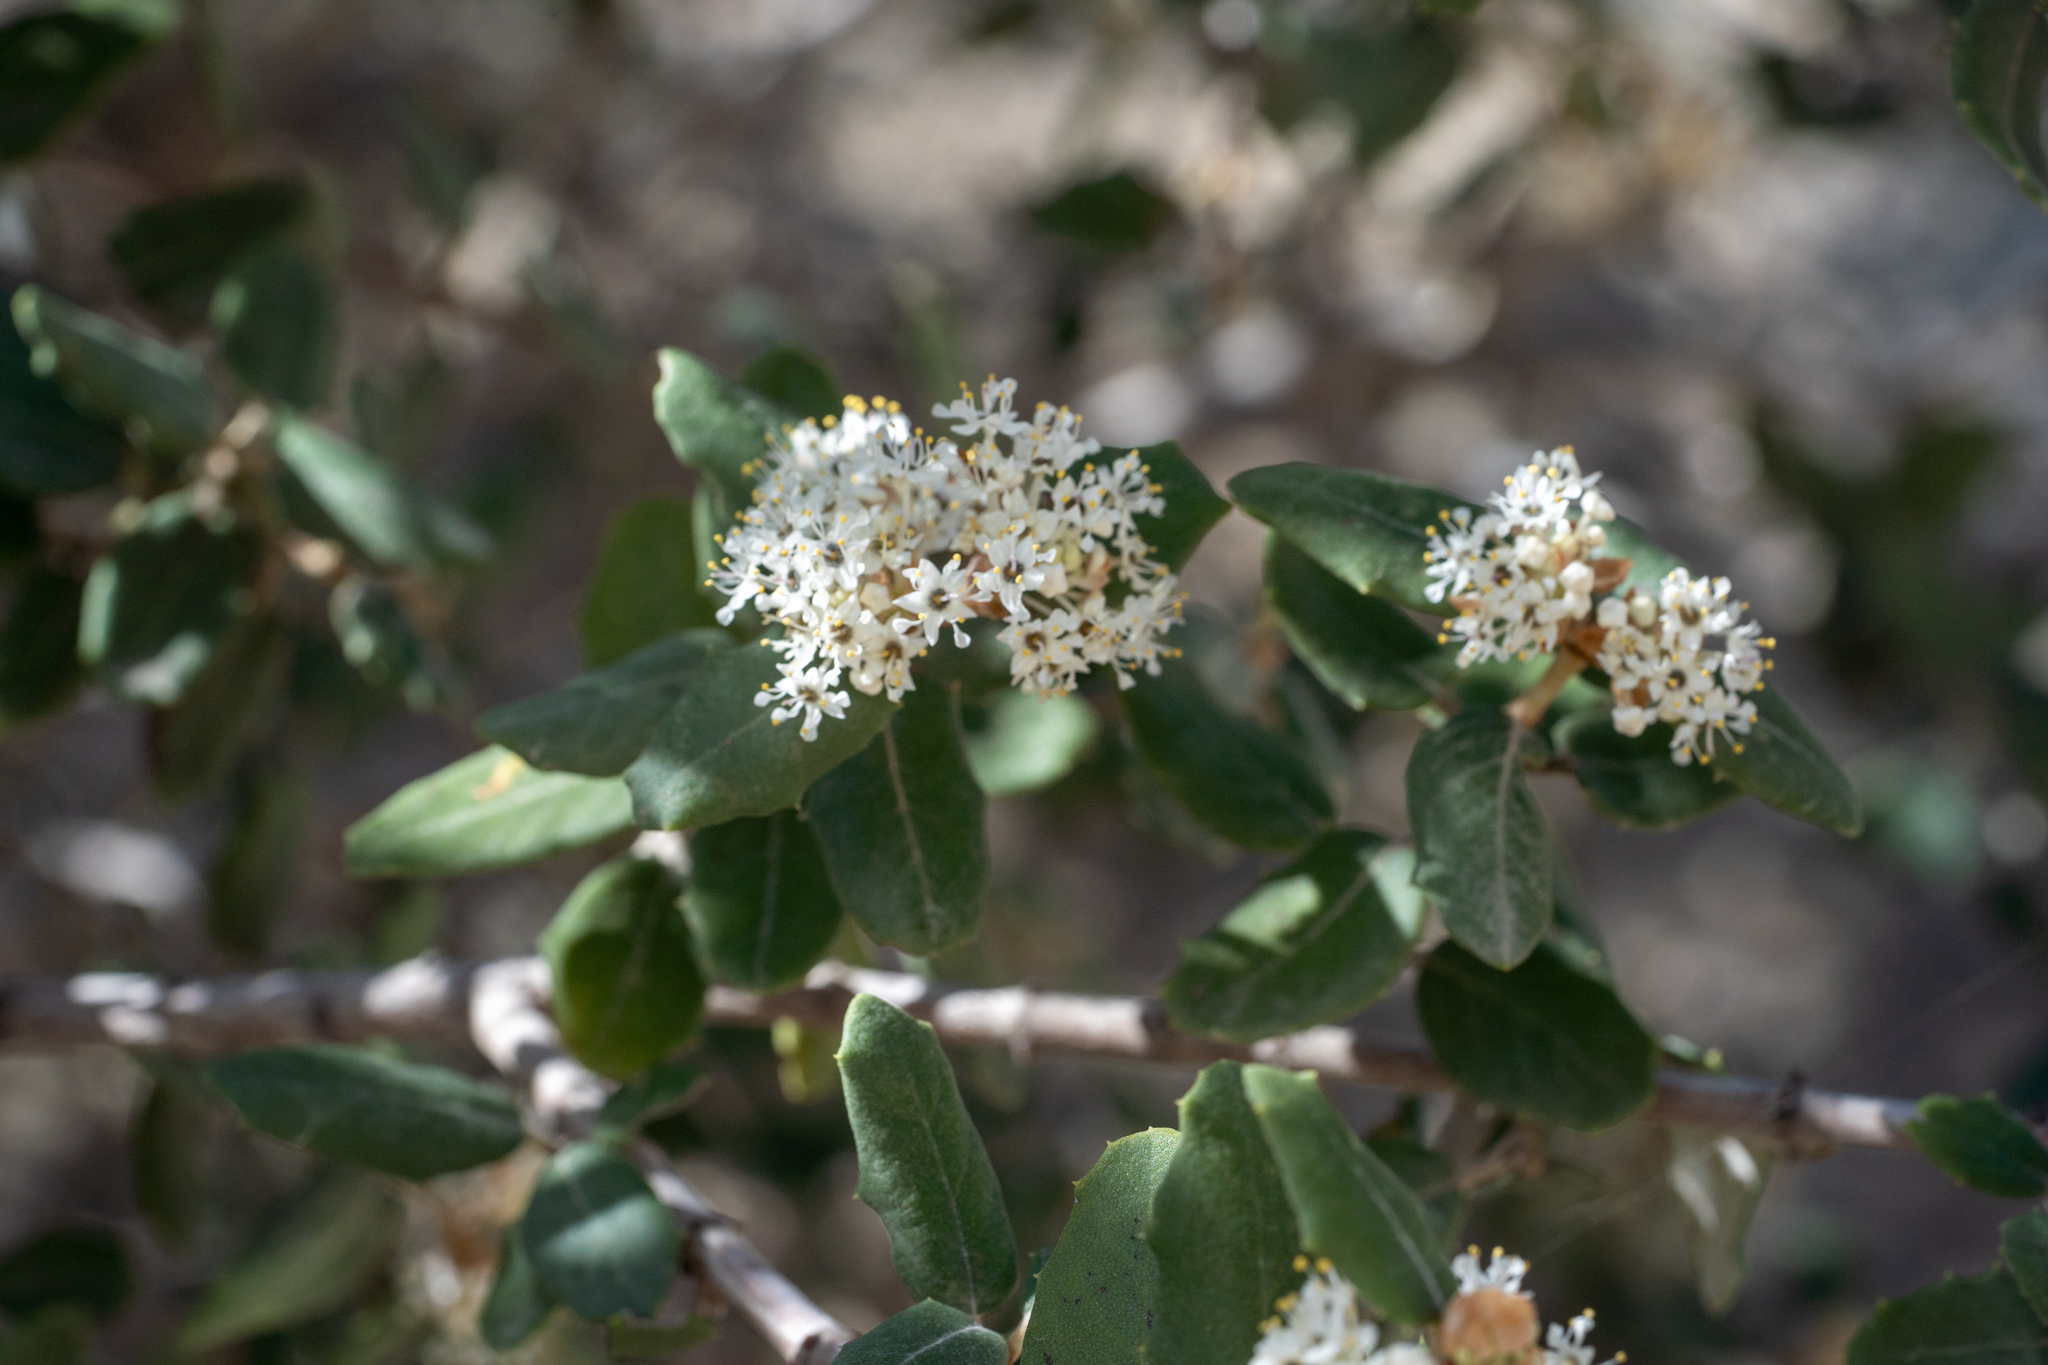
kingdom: Plantae
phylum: Tracheophyta
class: Magnoliopsida
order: Rosales
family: Rhamnaceae
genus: Ceanothus
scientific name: Ceanothus crassifolius
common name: Hoaryleaf ceanothus
